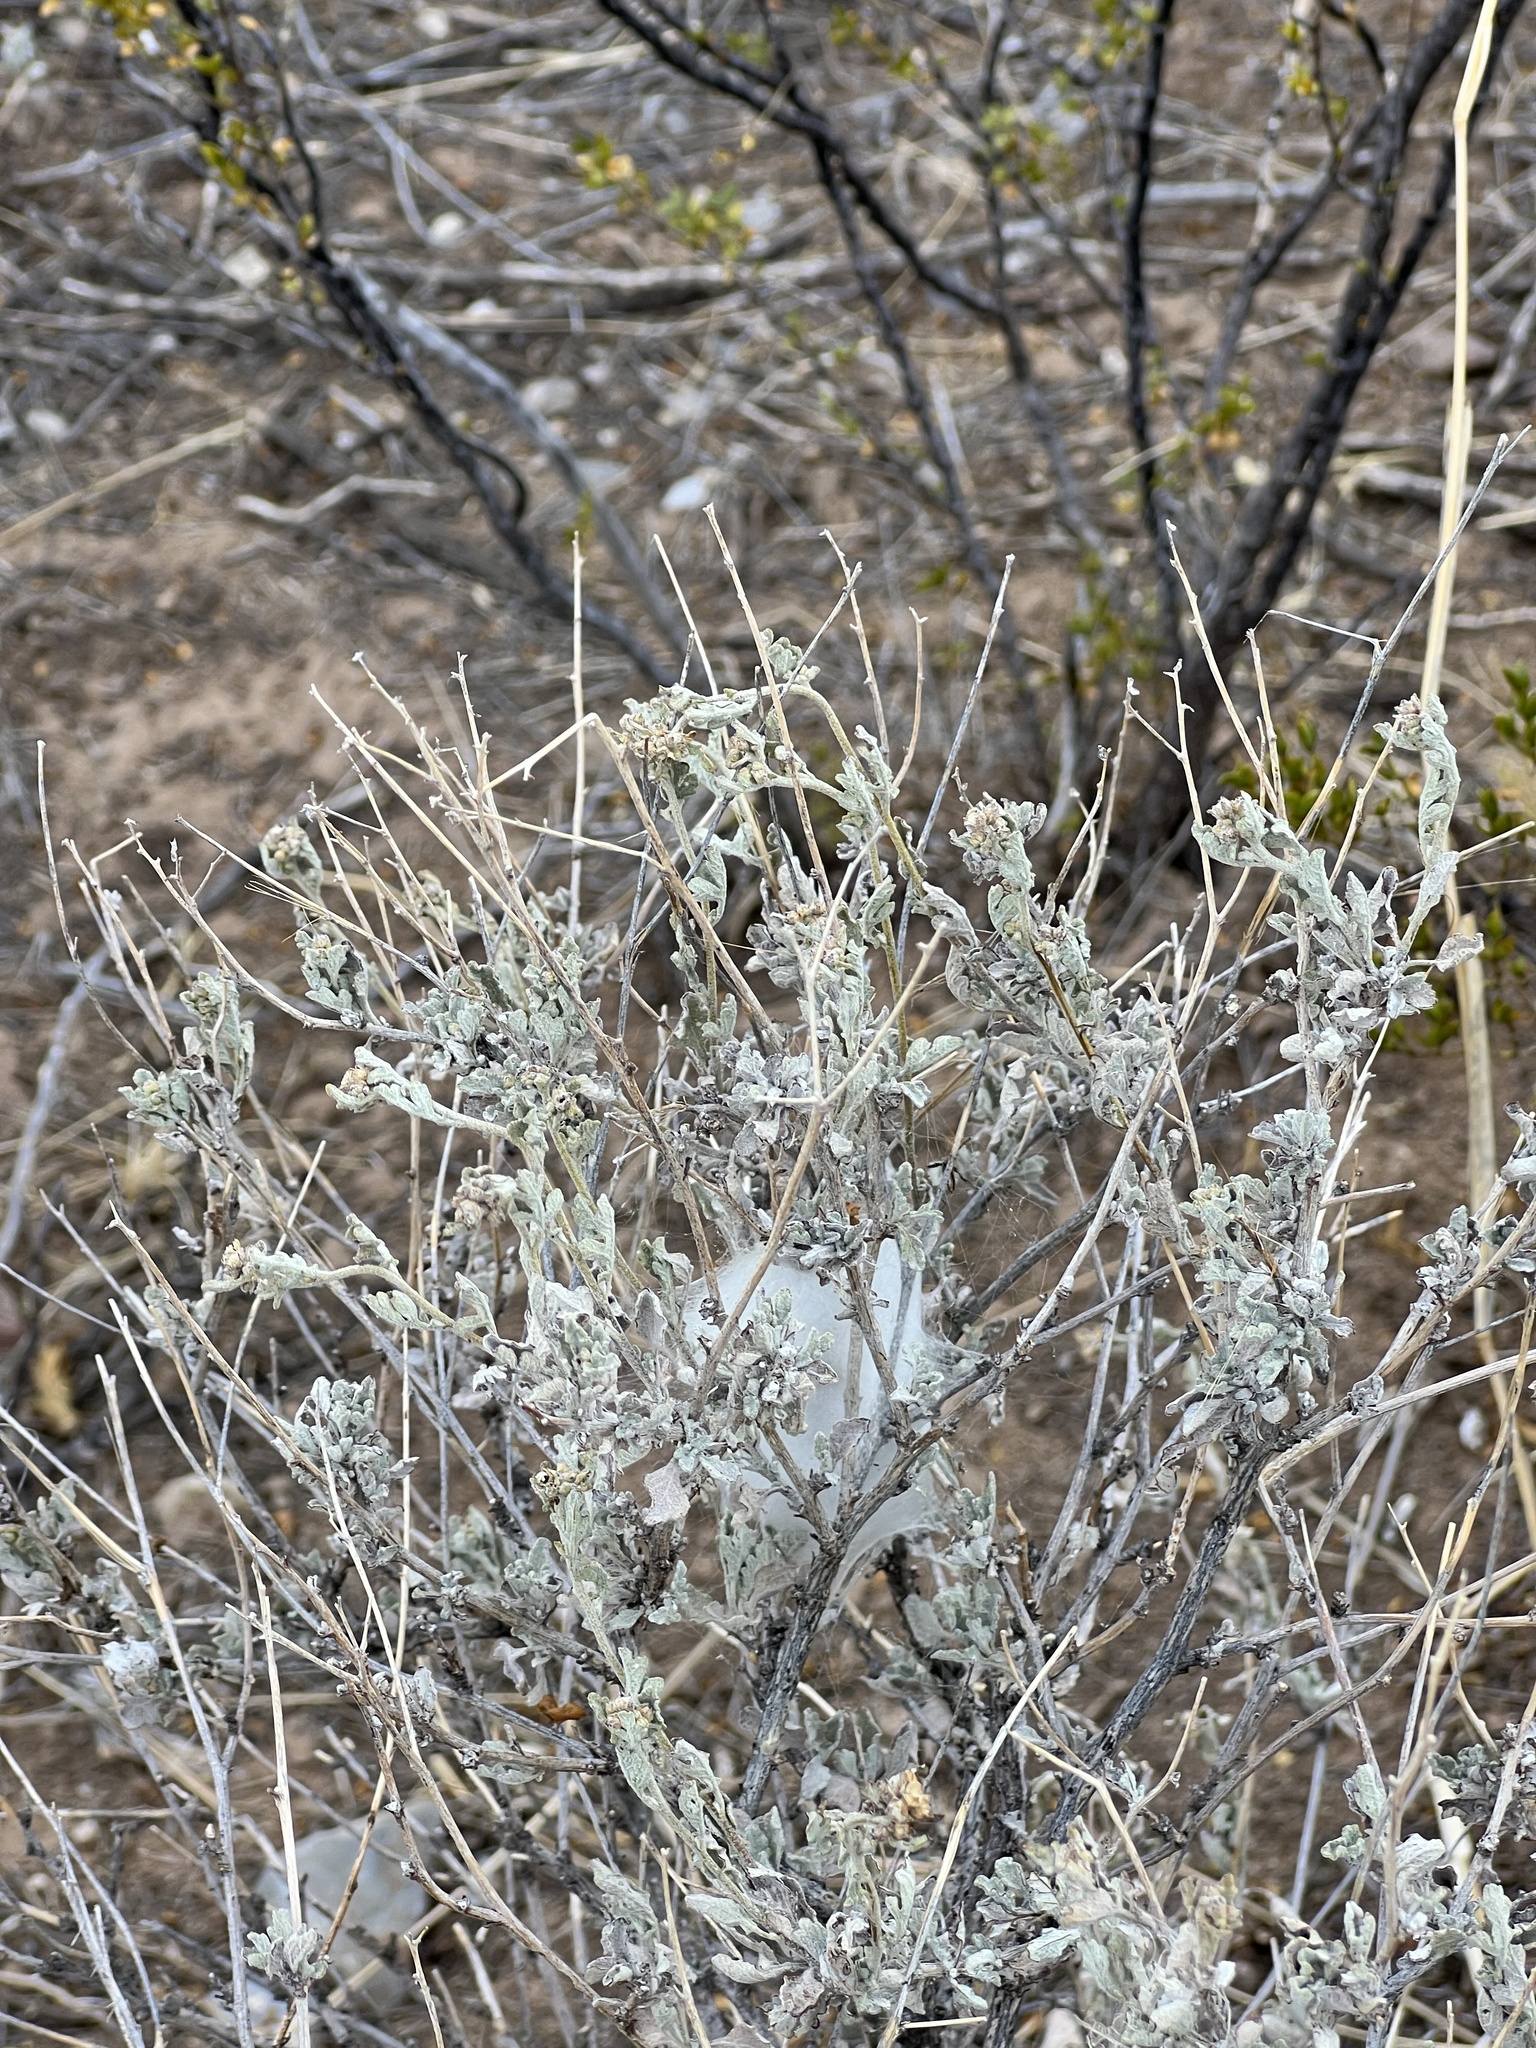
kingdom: Plantae
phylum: Tracheophyta
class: Magnoliopsida
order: Asterales
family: Asteraceae
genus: Parthenium
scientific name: Parthenium incanum
